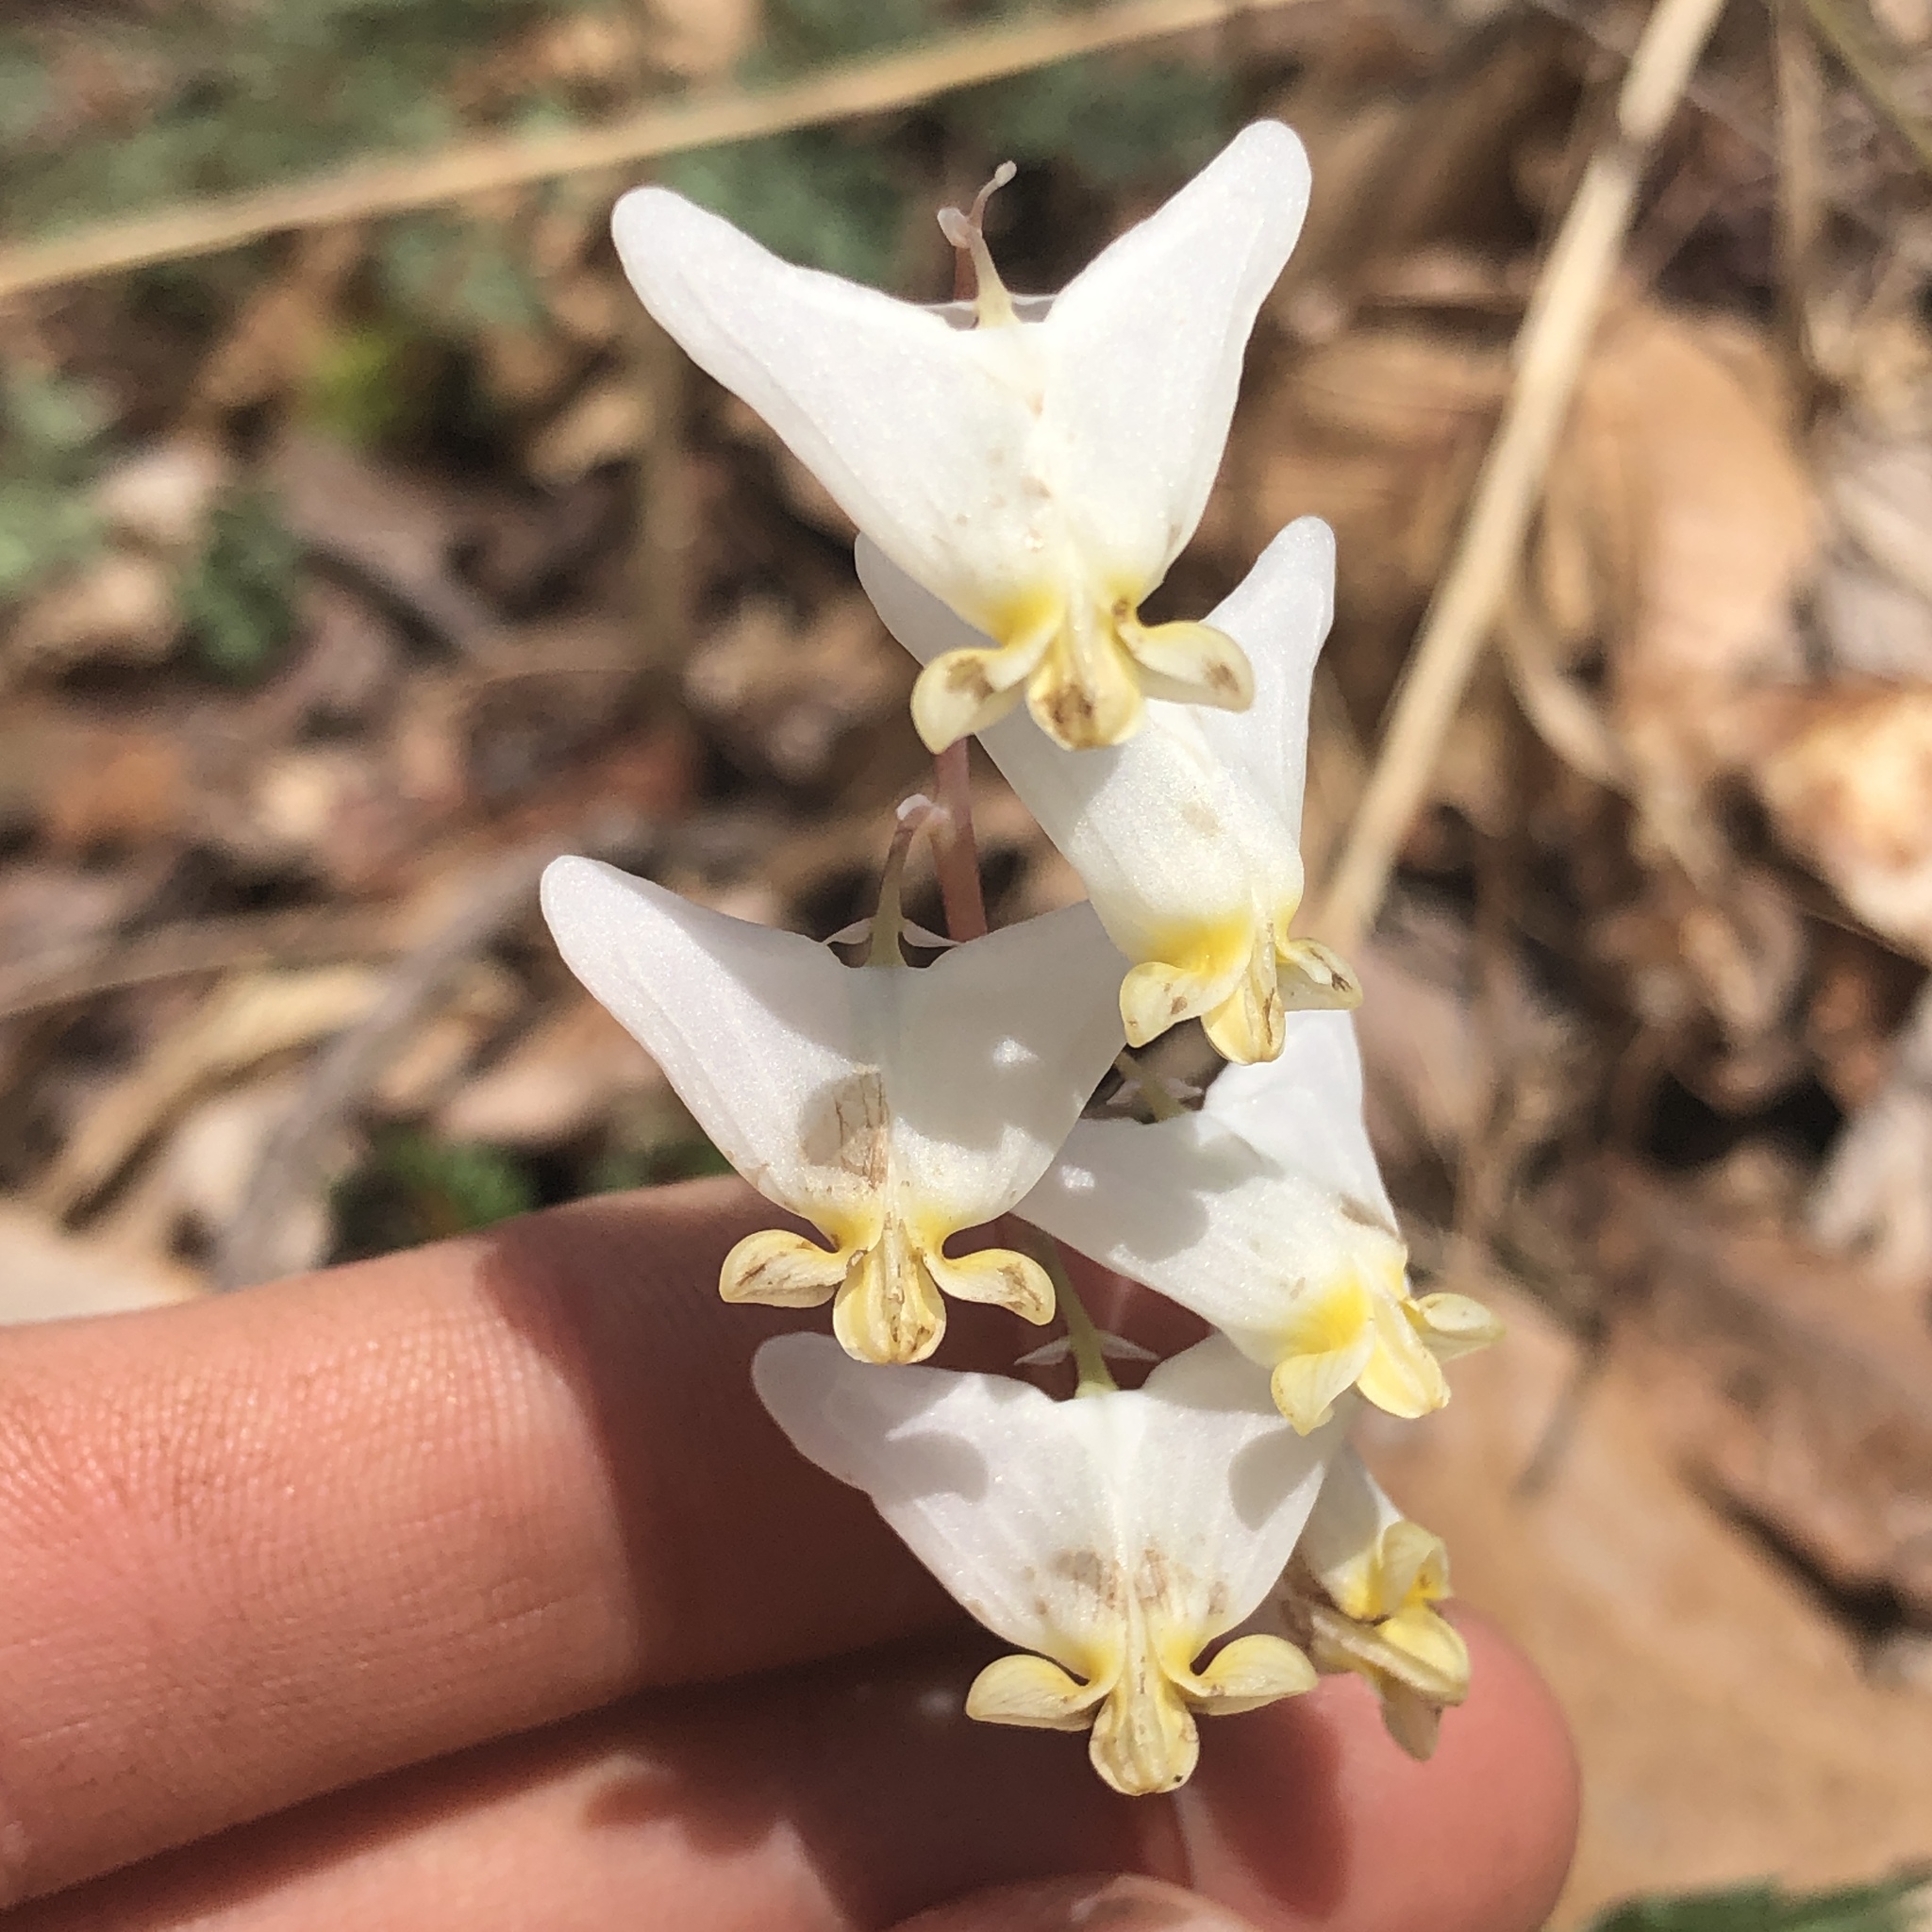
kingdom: Plantae
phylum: Tracheophyta
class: Magnoliopsida
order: Ranunculales
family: Papaveraceae
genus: Dicentra
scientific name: Dicentra cucullaria
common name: Dutchman's breeches
